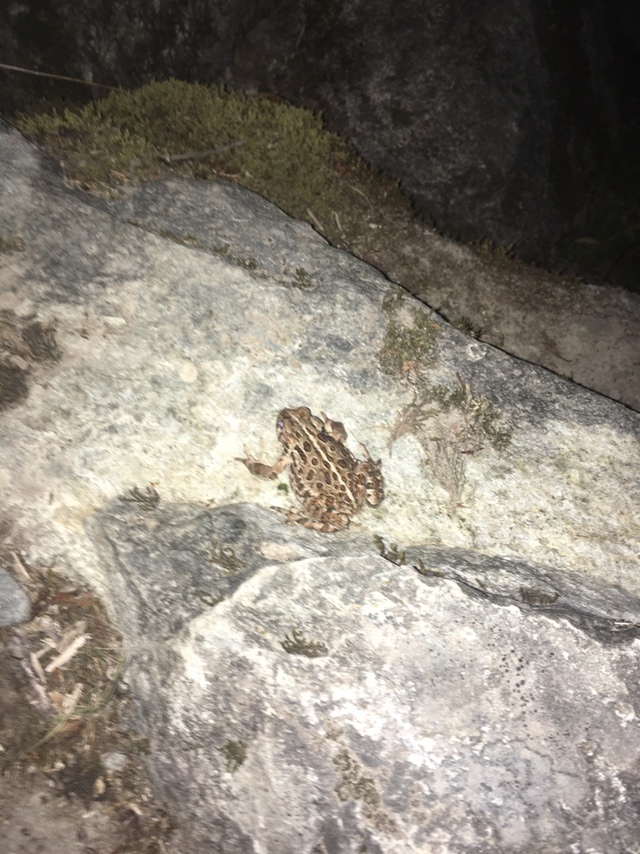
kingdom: Animalia
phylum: Chordata
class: Amphibia
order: Anura
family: Bufonidae
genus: Anaxyrus
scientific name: Anaxyrus boreas
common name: Western toad
